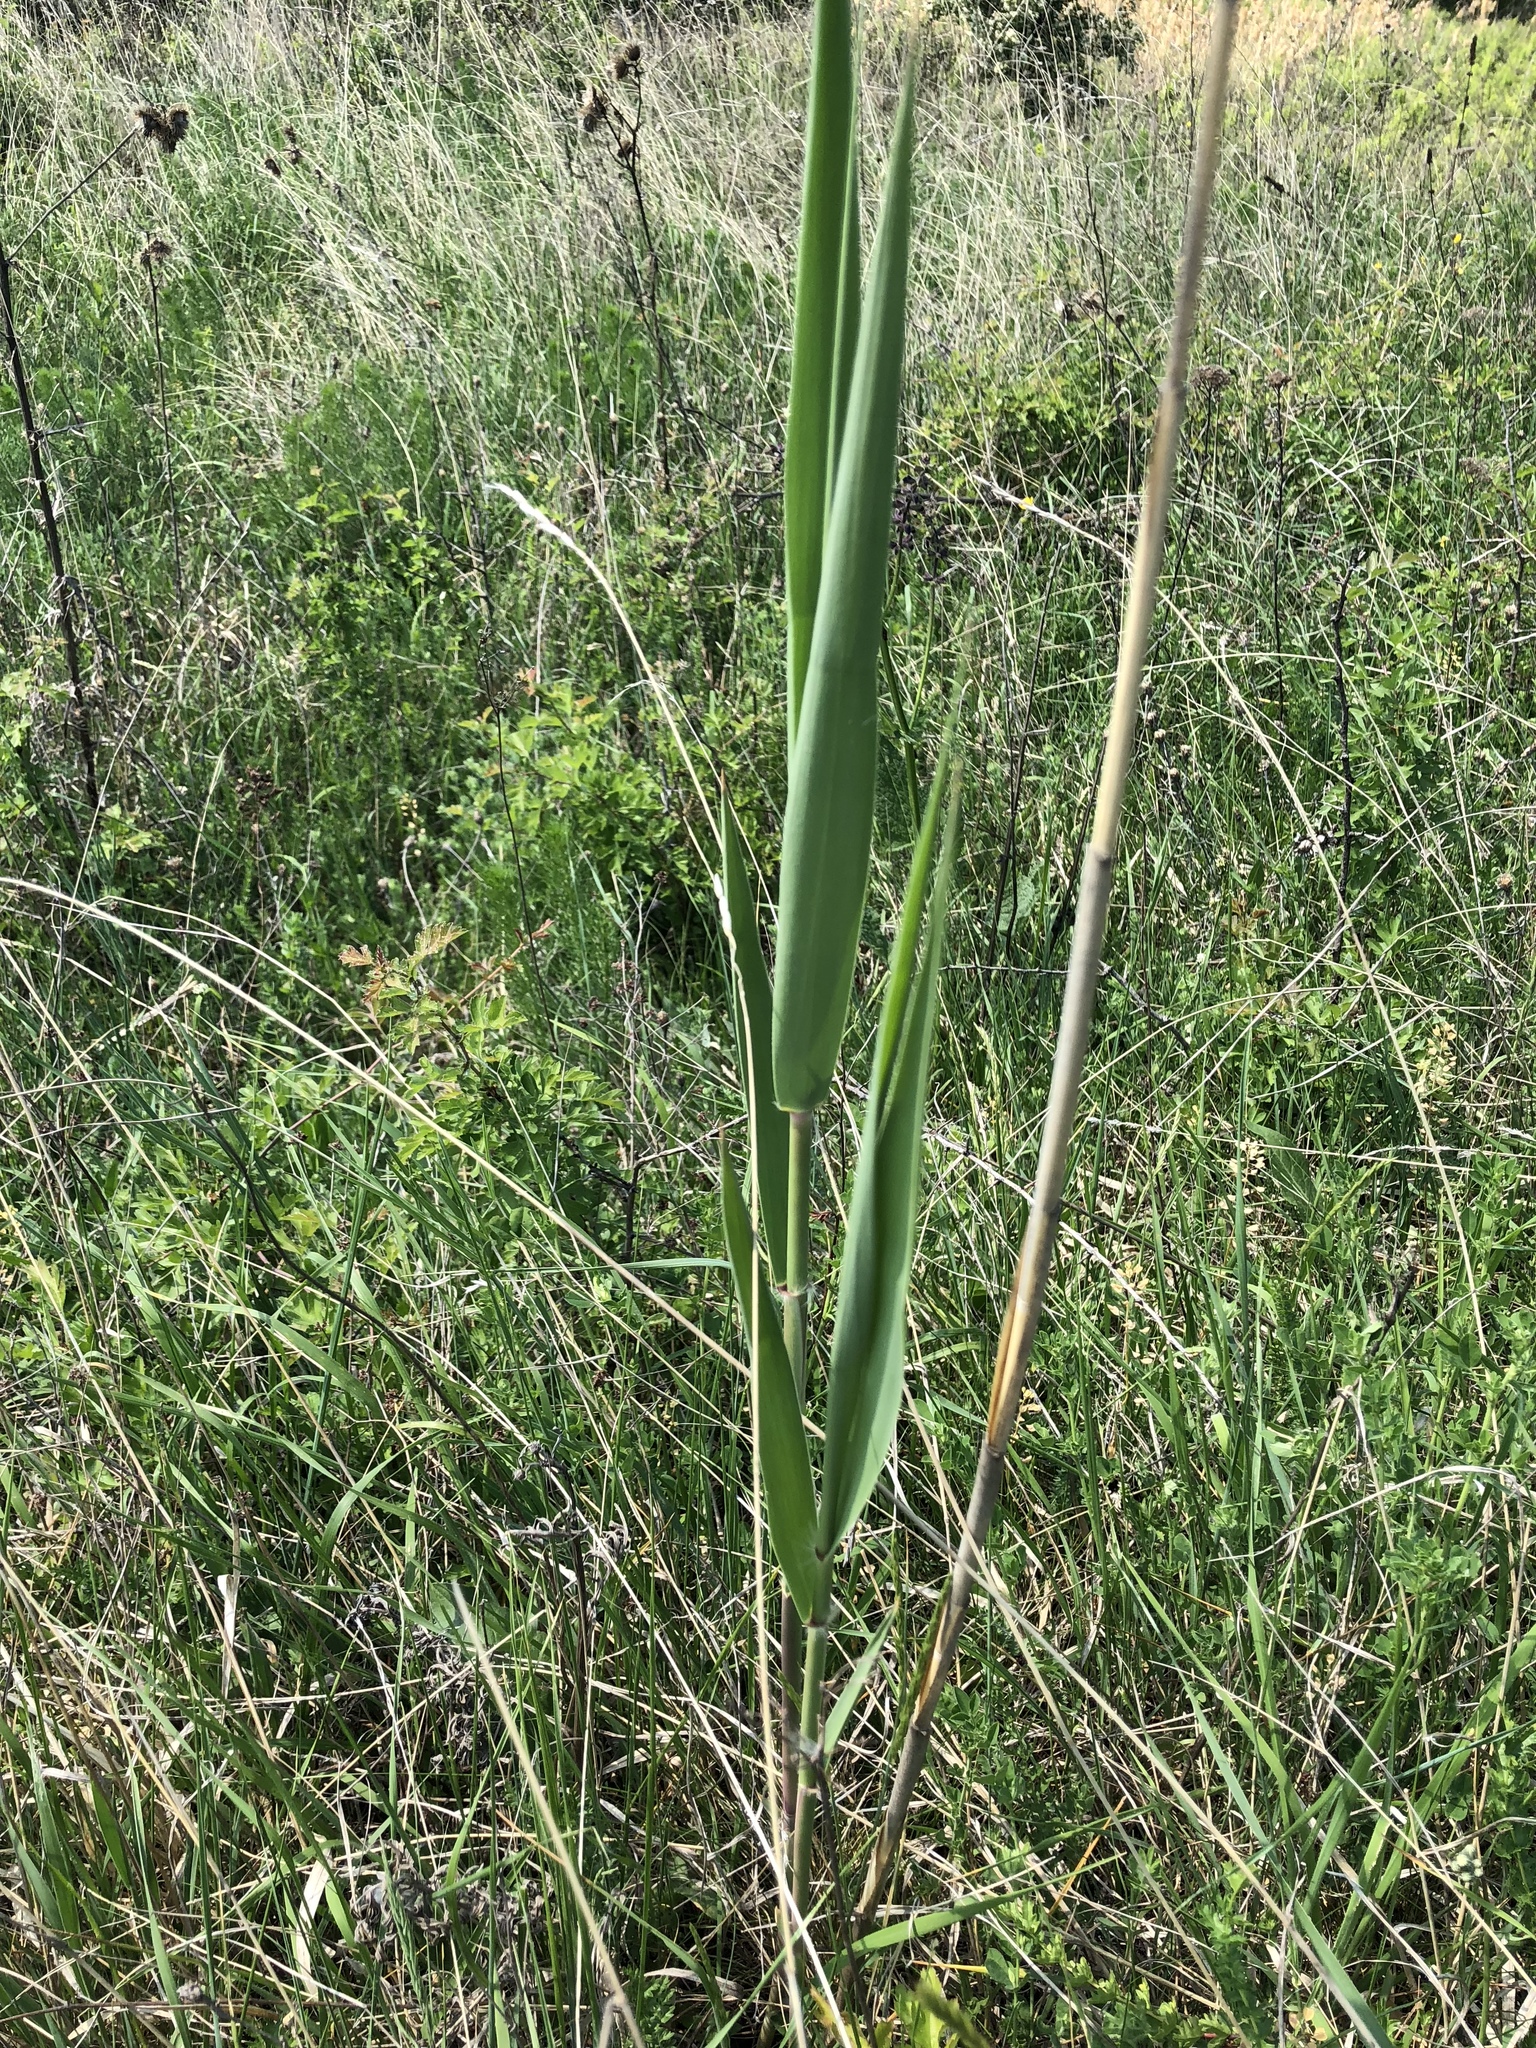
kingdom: Plantae
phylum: Tracheophyta
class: Liliopsida
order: Poales
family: Poaceae
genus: Phragmites
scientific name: Phragmites australis
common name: Common reed
